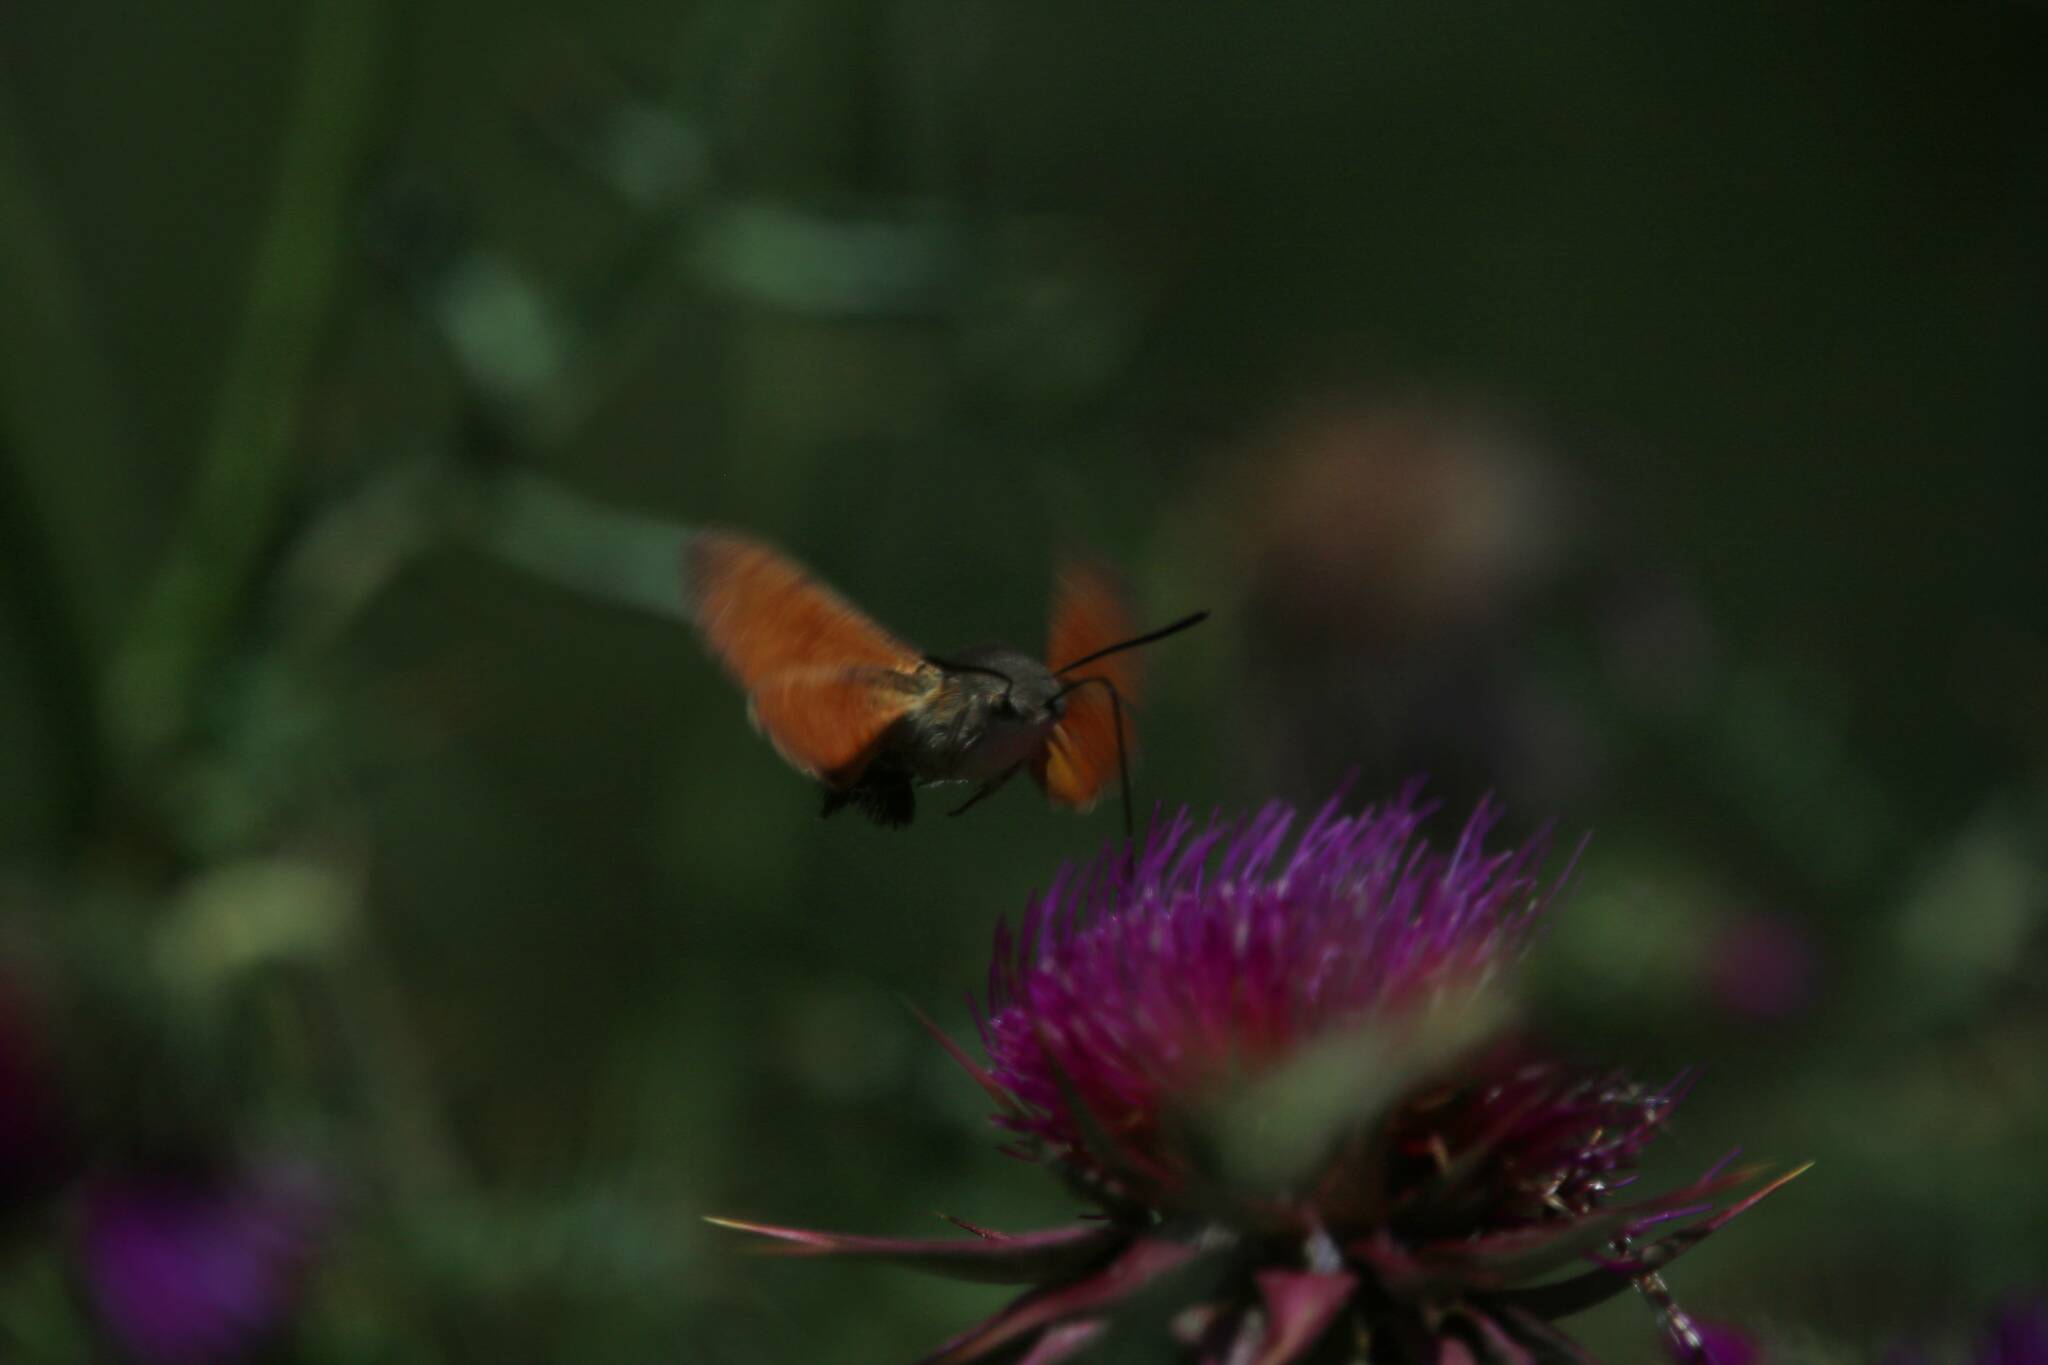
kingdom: Animalia
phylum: Arthropoda
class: Insecta
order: Lepidoptera
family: Sphingidae
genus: Macroglossum
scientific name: Macroglossum stellatarum
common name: Humming-bird hawk-moth
